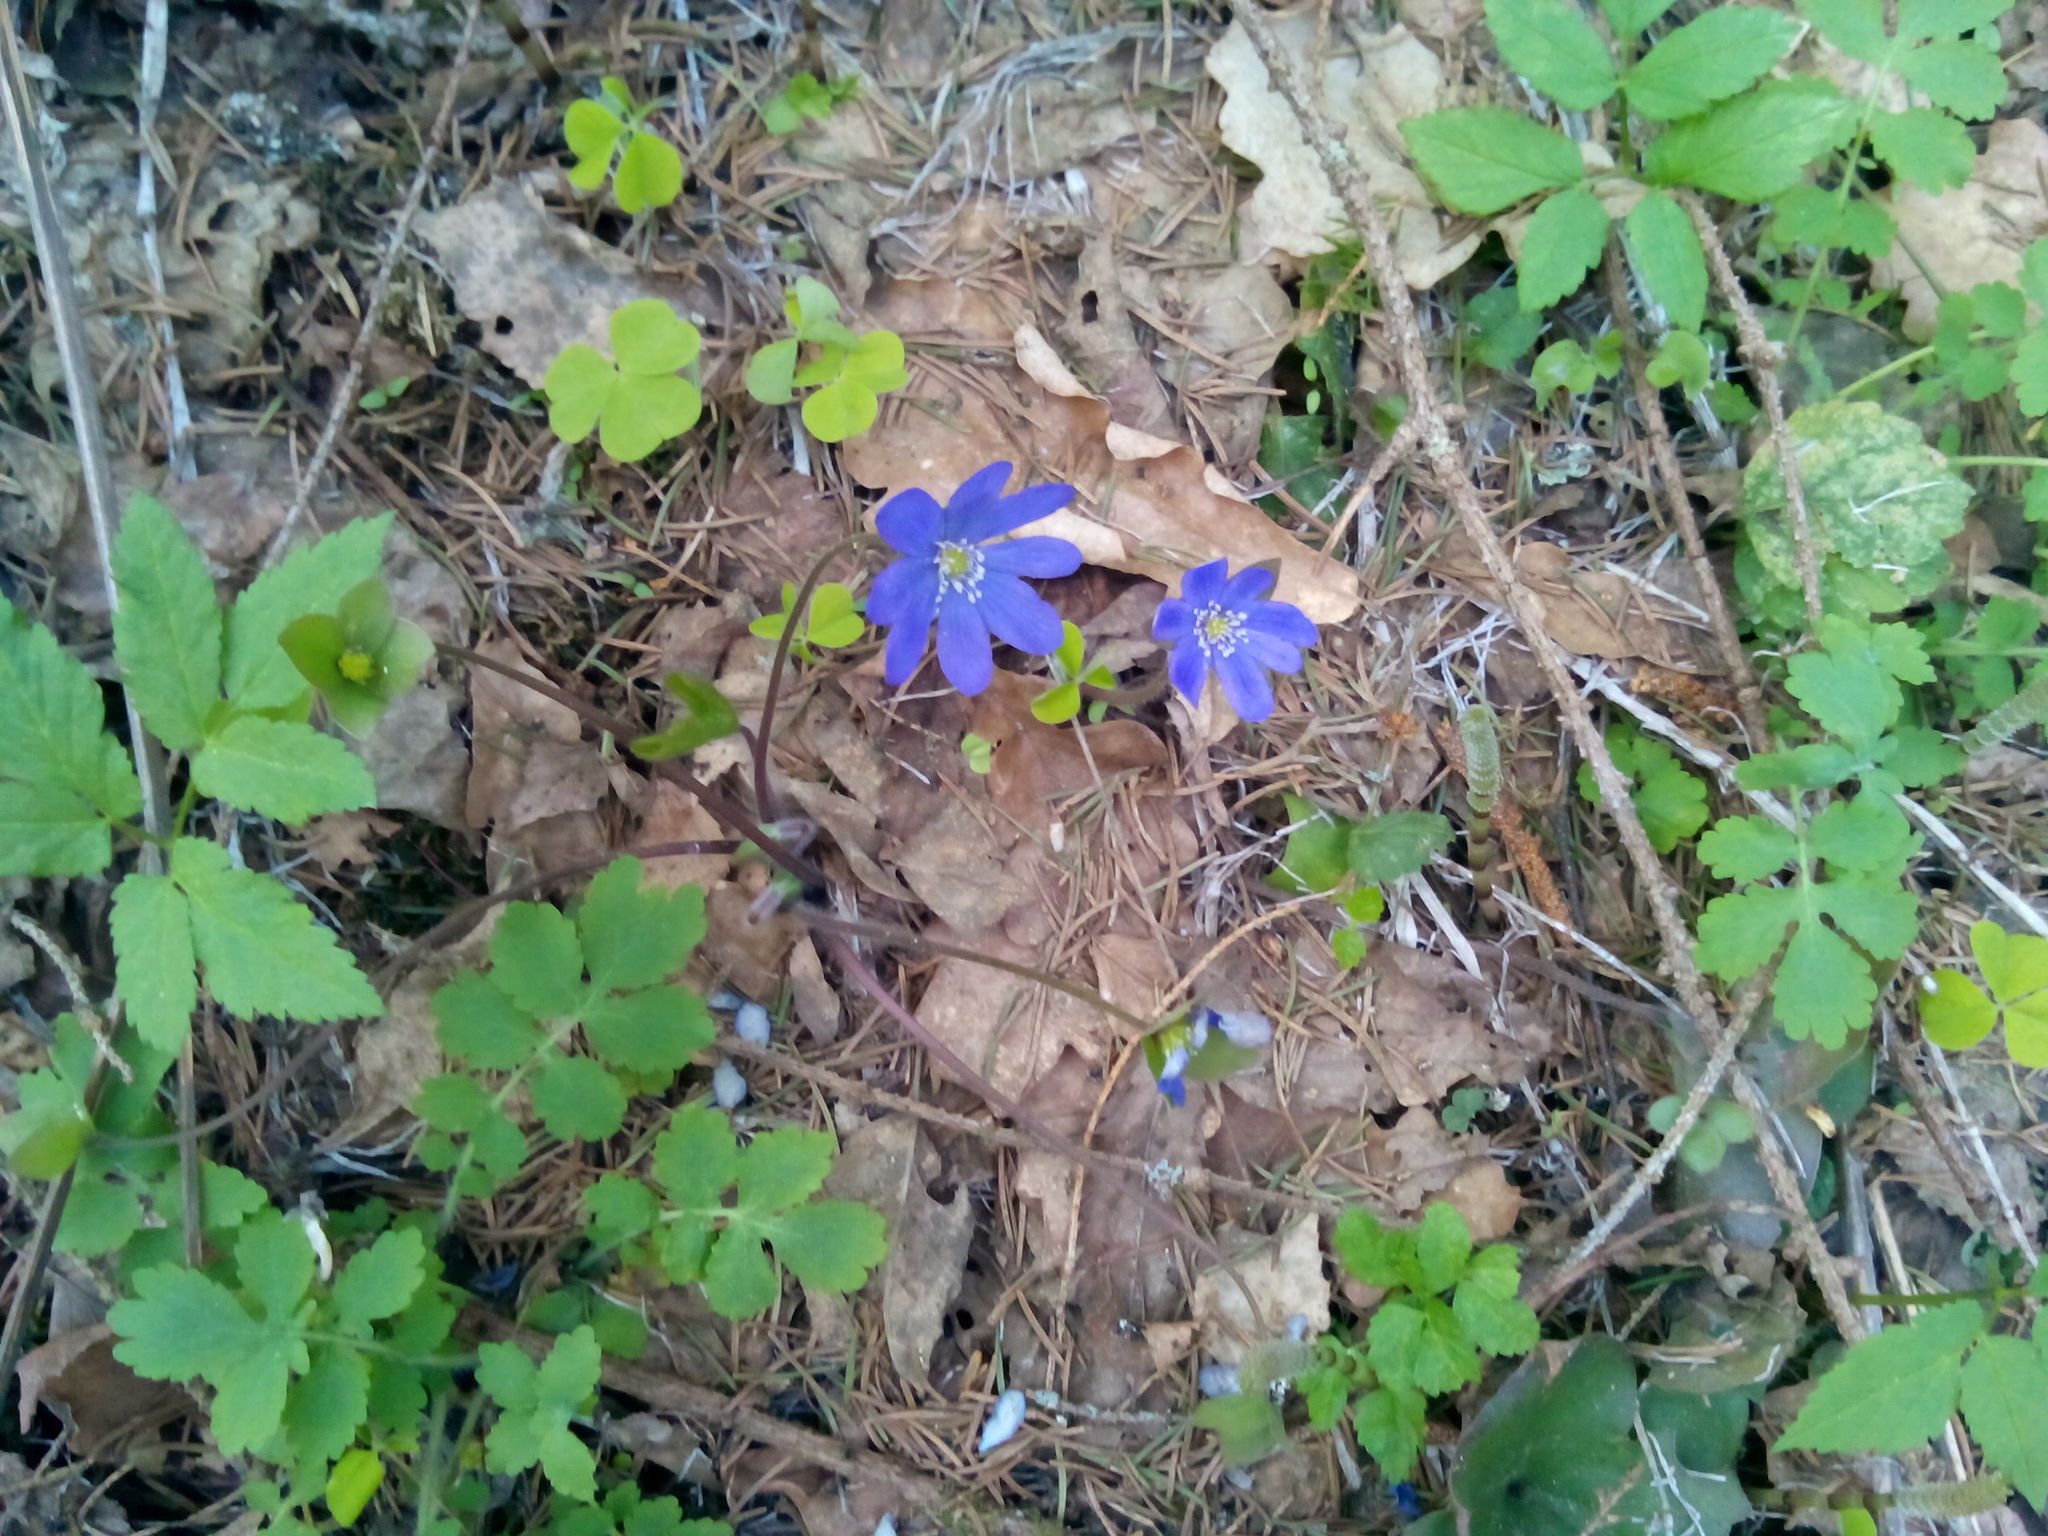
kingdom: Plantae
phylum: Tracheophyta
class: Magnoliopsida
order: Ranunculales
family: Ranunculaceae
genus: Hepatica
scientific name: Hepatica nobilis
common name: Liverleaf
